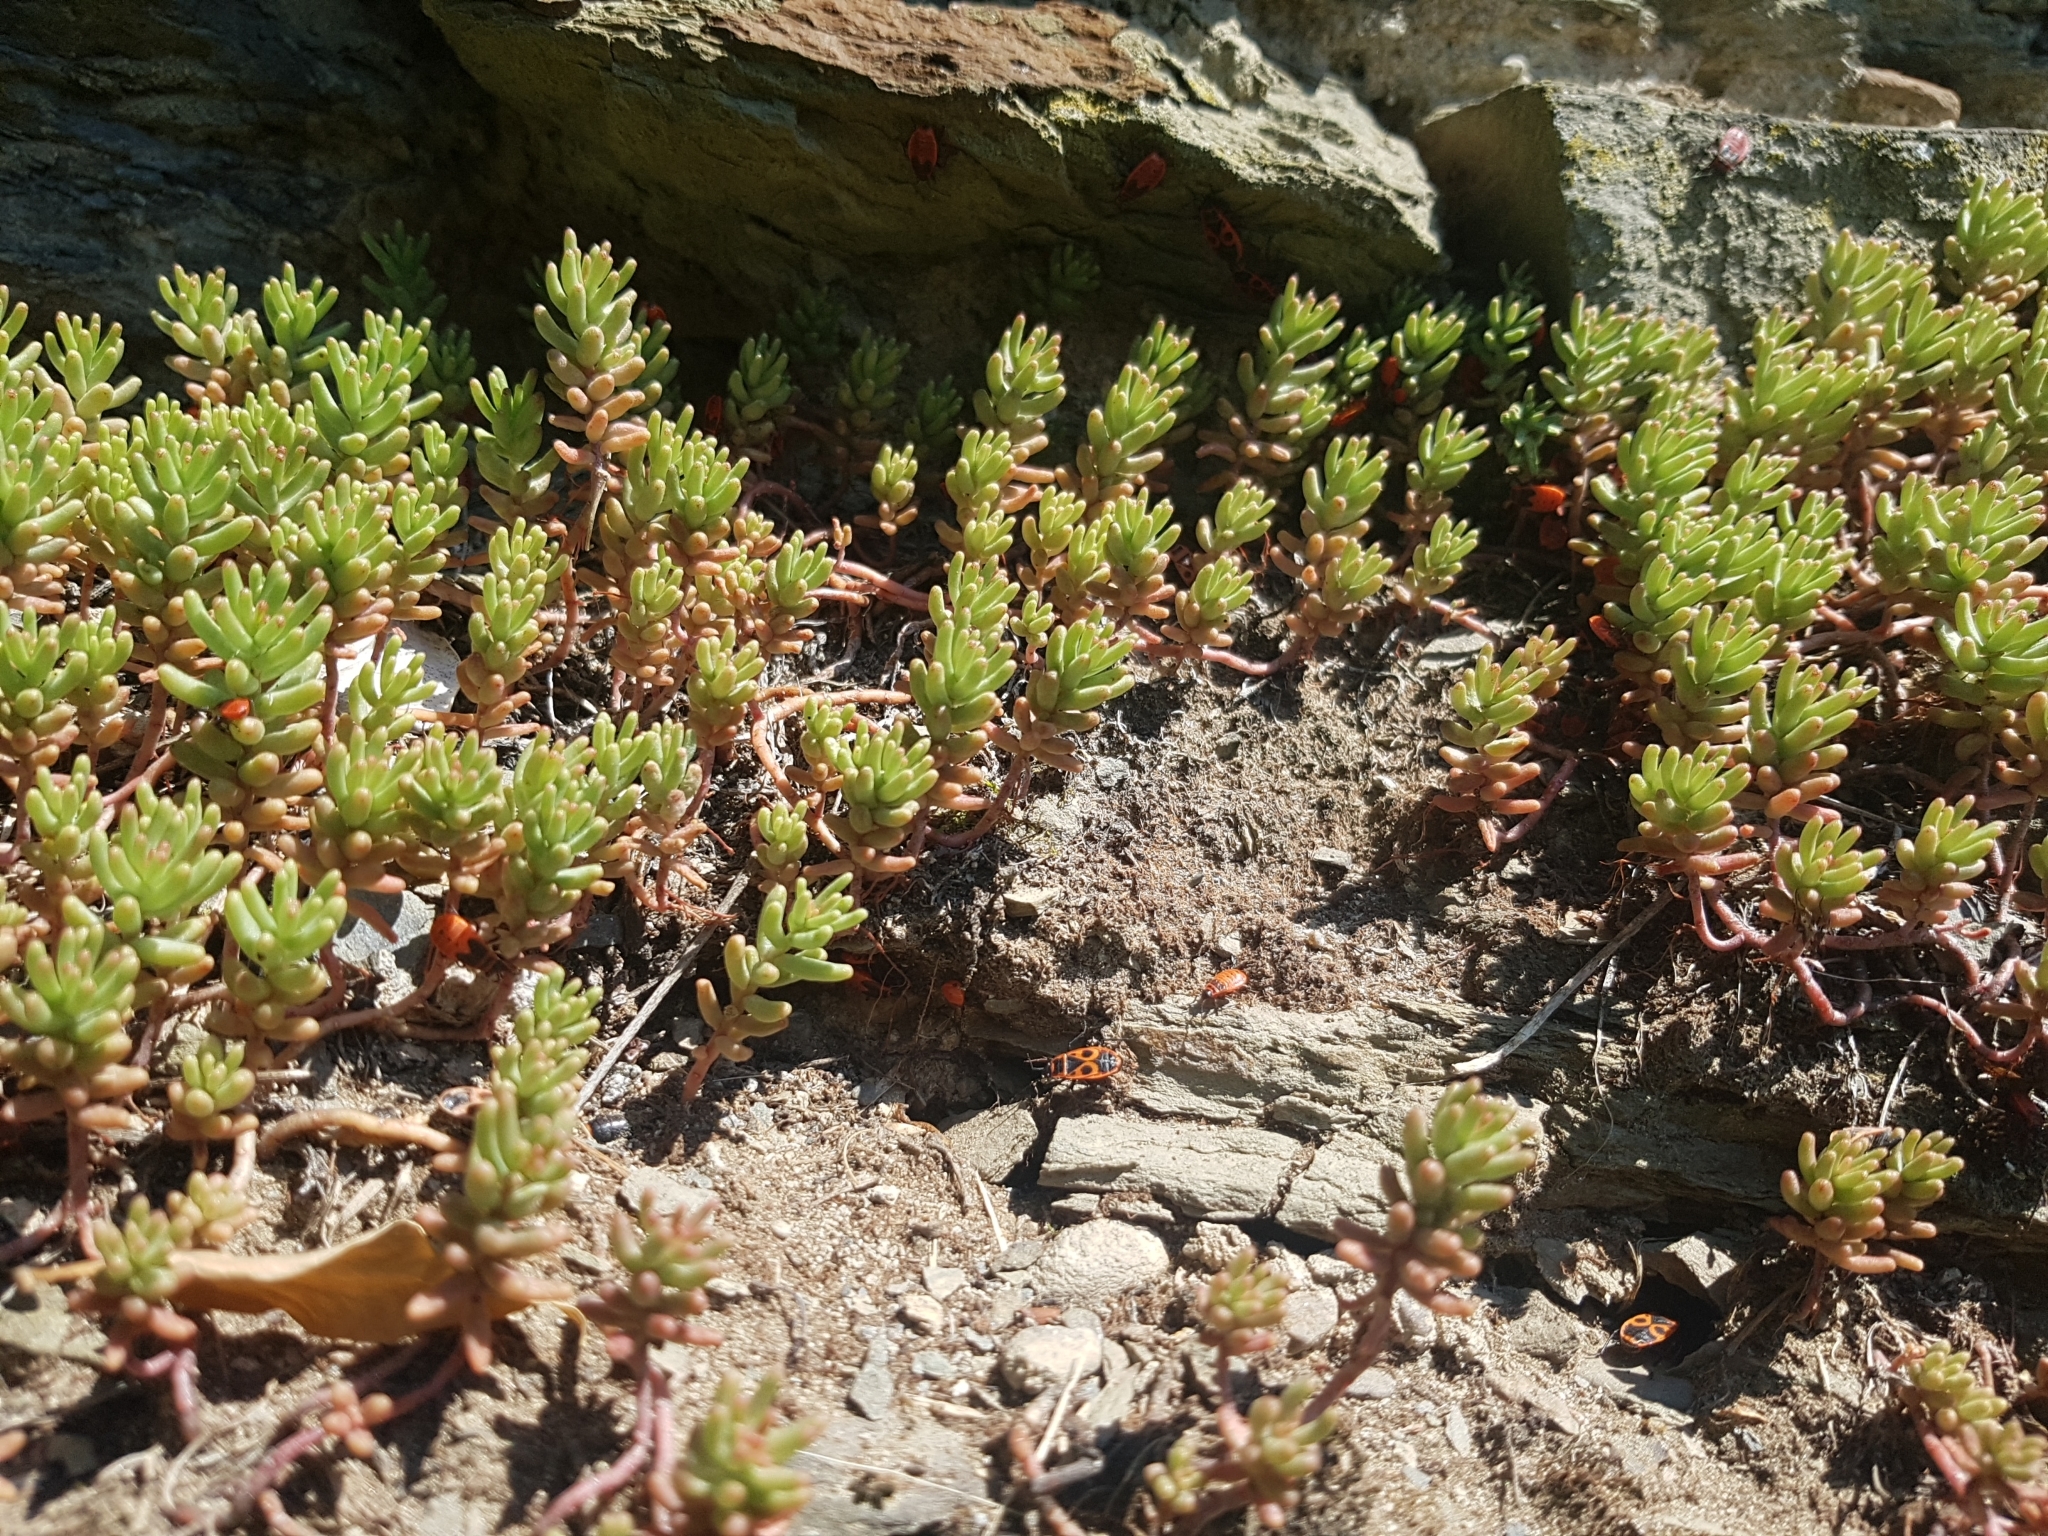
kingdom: Plantae
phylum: Tracheophyta
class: Magnoliopsida
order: Saxifragales
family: Crassulaceae
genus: Sedum
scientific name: Sedum album
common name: White stonecrop
